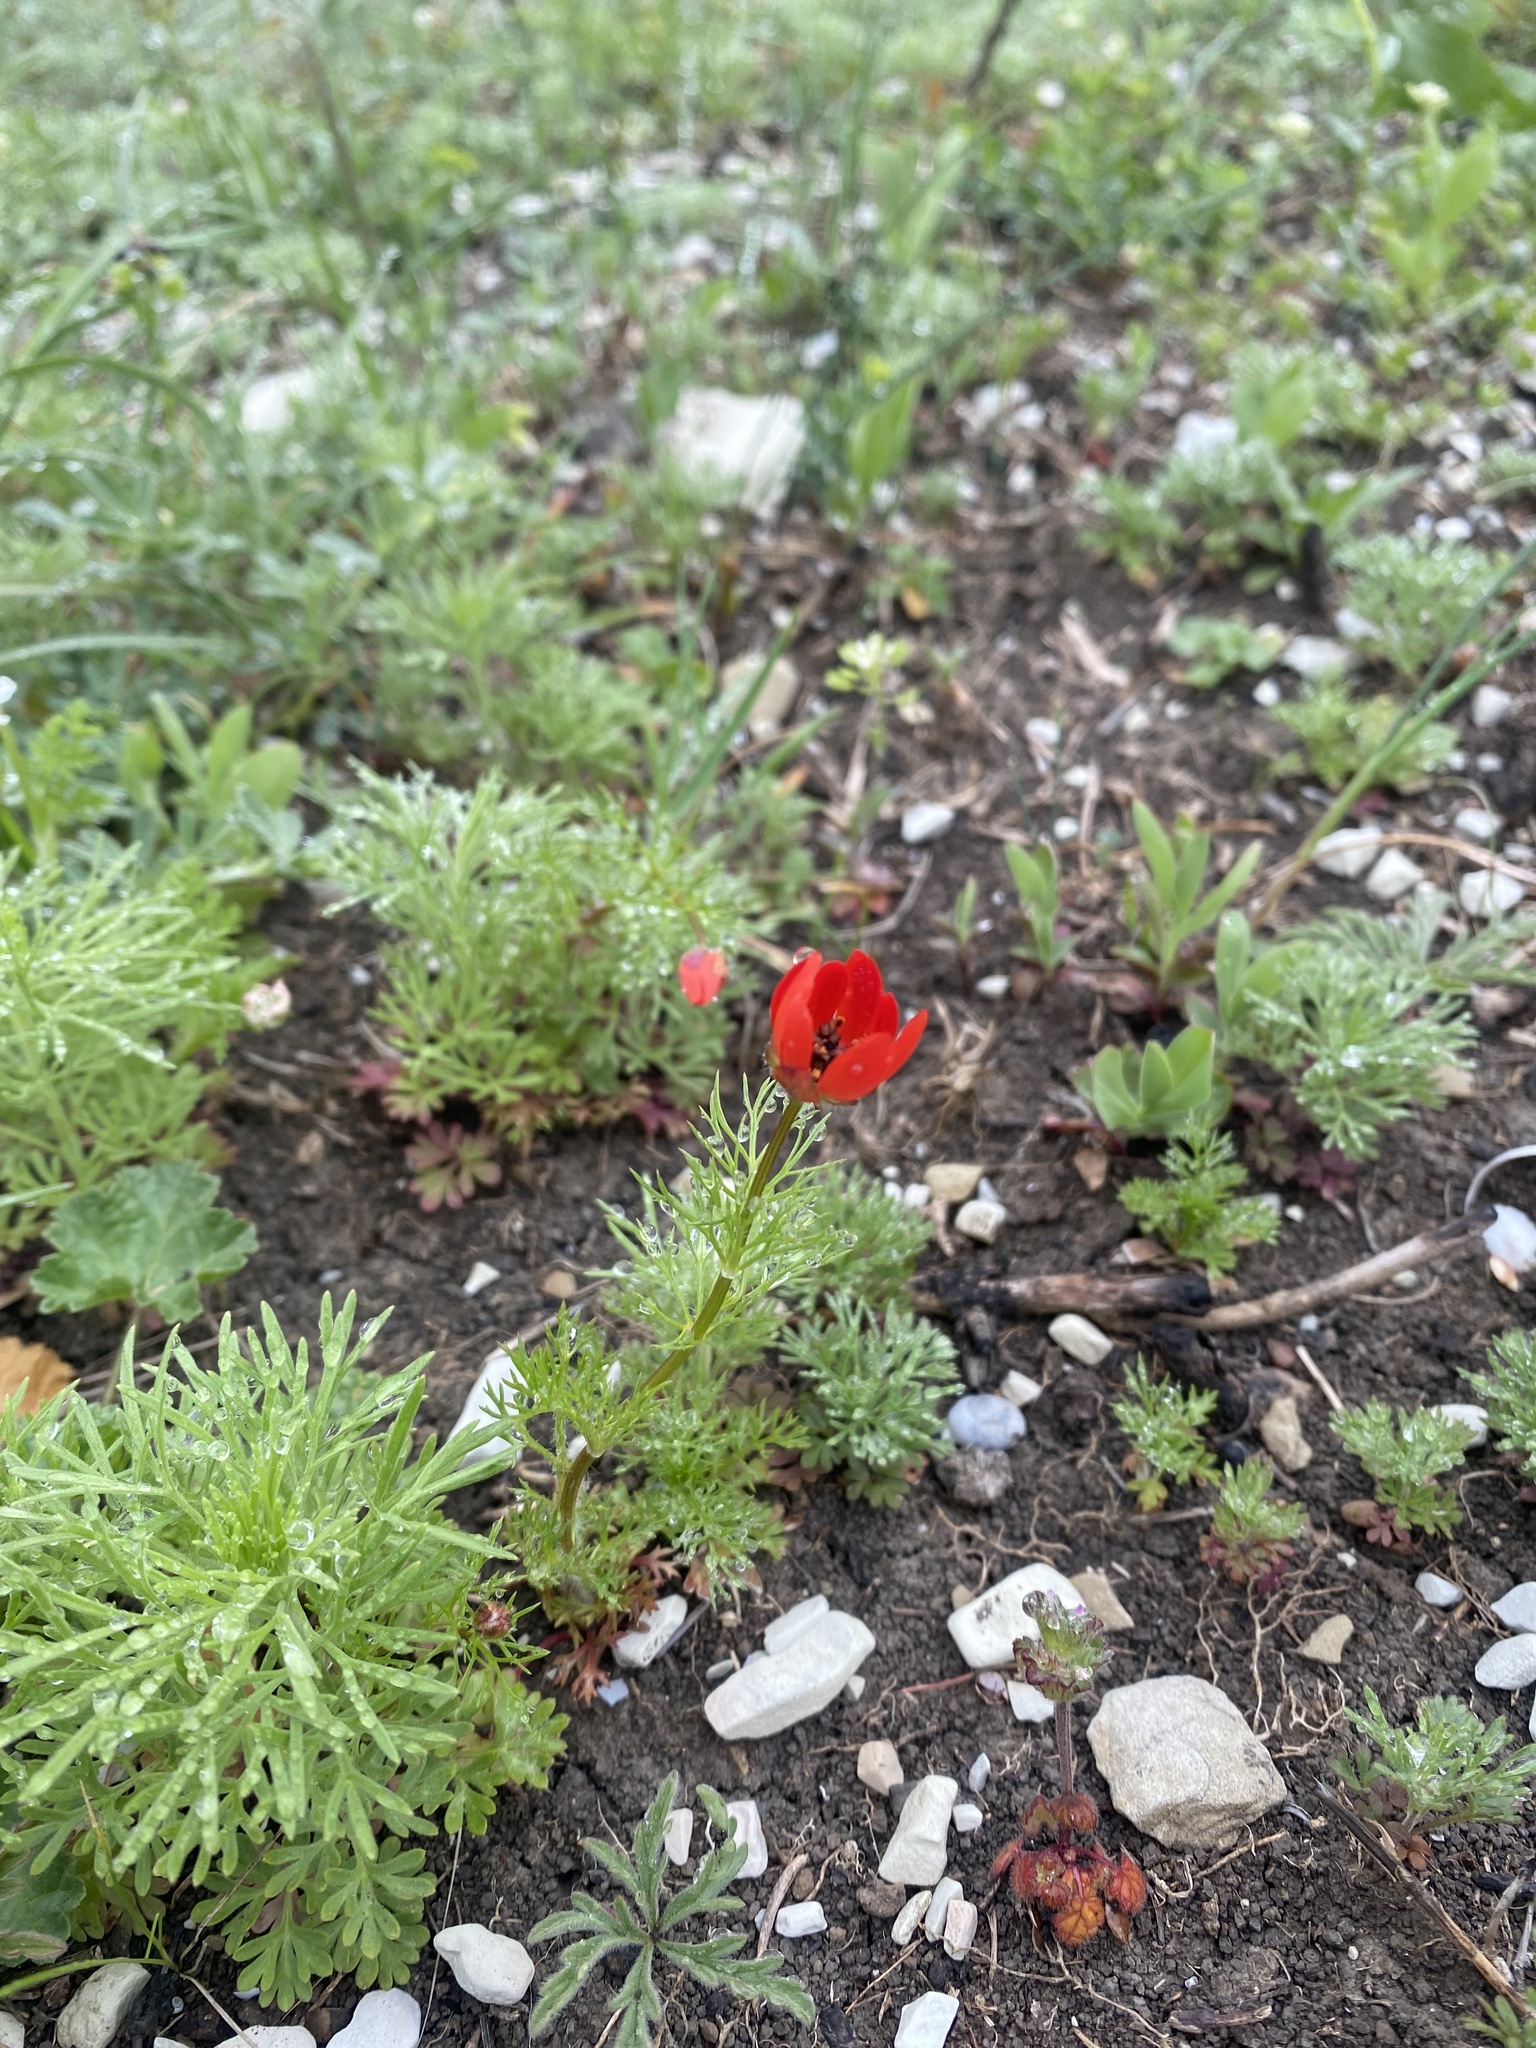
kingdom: Plantae
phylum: Tracheophyta
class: Magnoliopsida
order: Ranunculales
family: Ranunculaceae
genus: Adonis
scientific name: Adonis flammea
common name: Large pheasant's-eye
